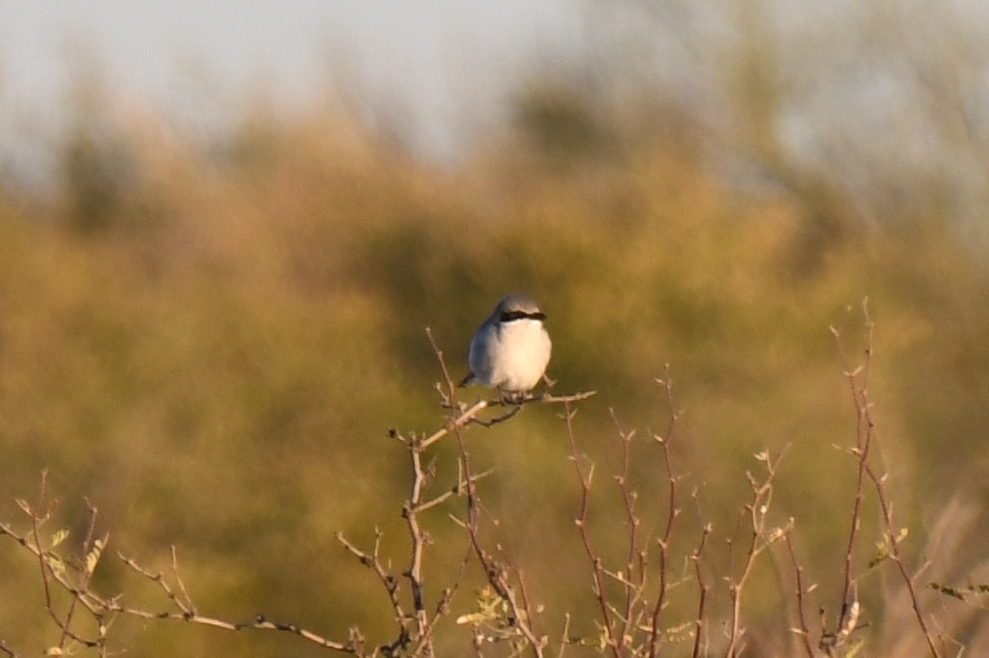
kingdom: Animalia
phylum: Chordata
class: Aves
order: Passeriformes
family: Laniidae
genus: Lanius
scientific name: Lanius ludovicianus
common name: Loggerhead shrike
